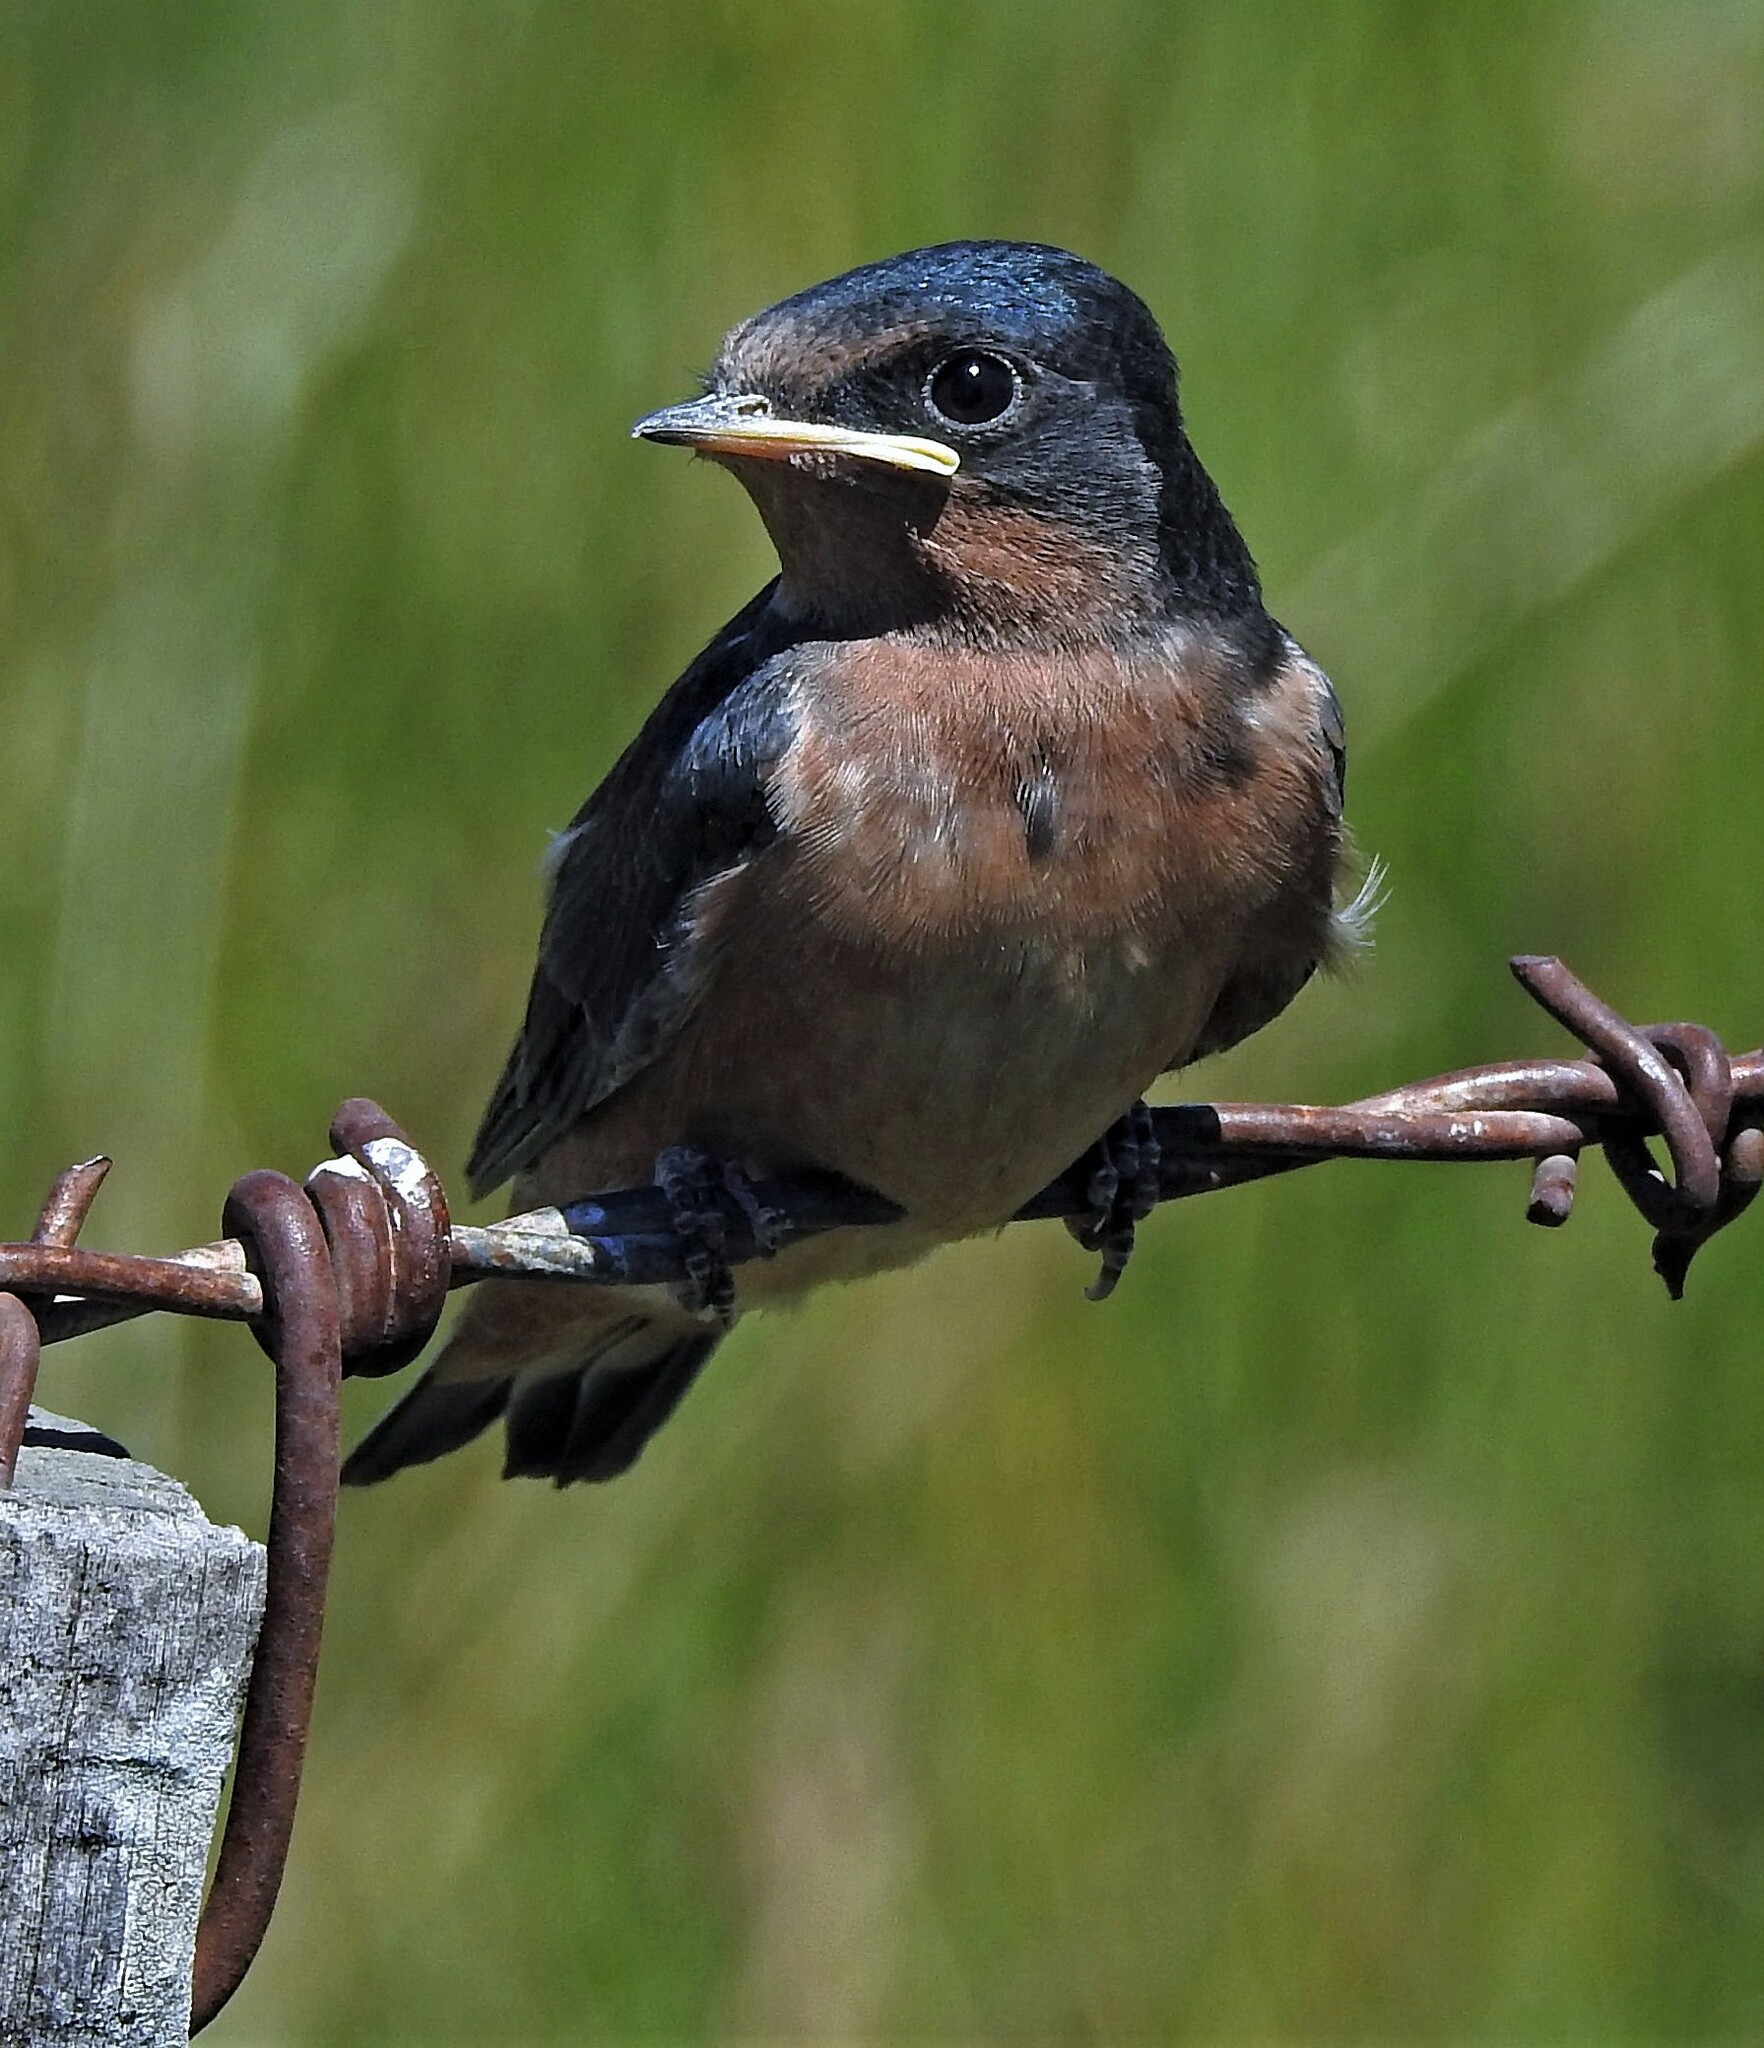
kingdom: Animalia
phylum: Chordata
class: Aves
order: Passeriformes
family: Hirundinidae
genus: Hirundo
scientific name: Hirundo rustica
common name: Barn swallow
